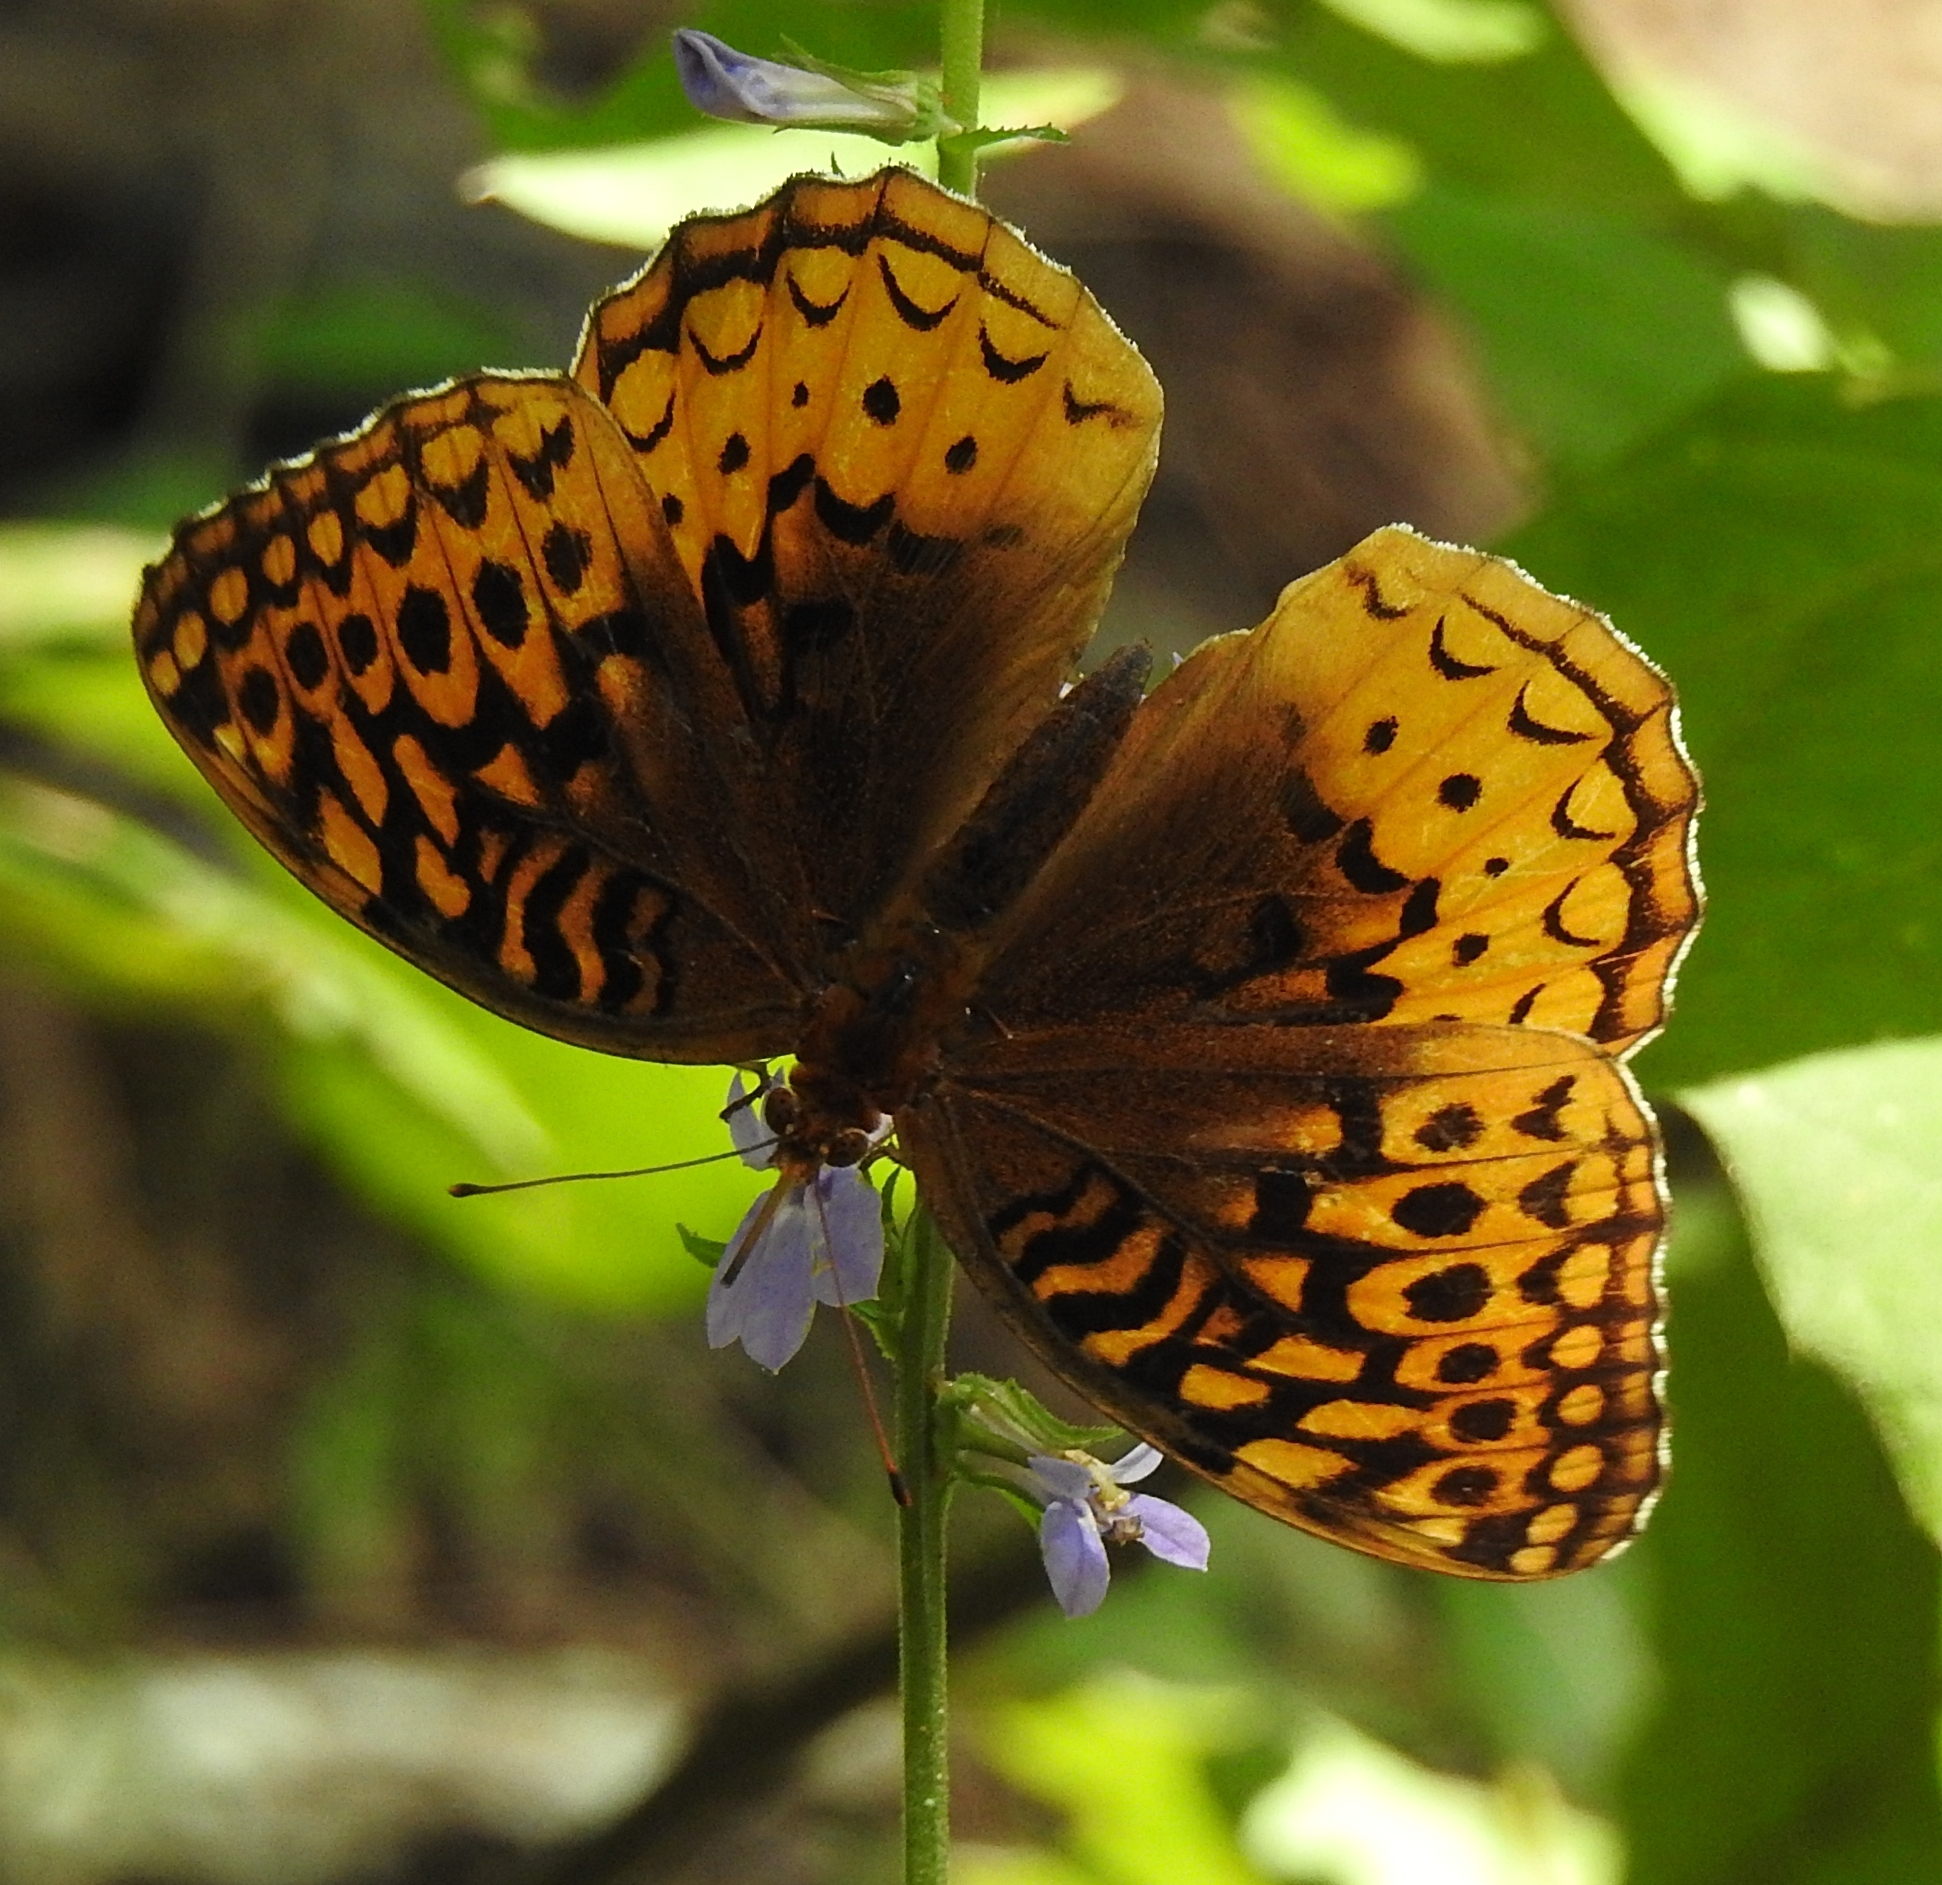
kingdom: Animalia
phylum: Arthropoda
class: Insecta
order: Lepidoptera
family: Nymphalidae
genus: Speyeria
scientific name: Speyeria cybele
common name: Great spangled fritillary
